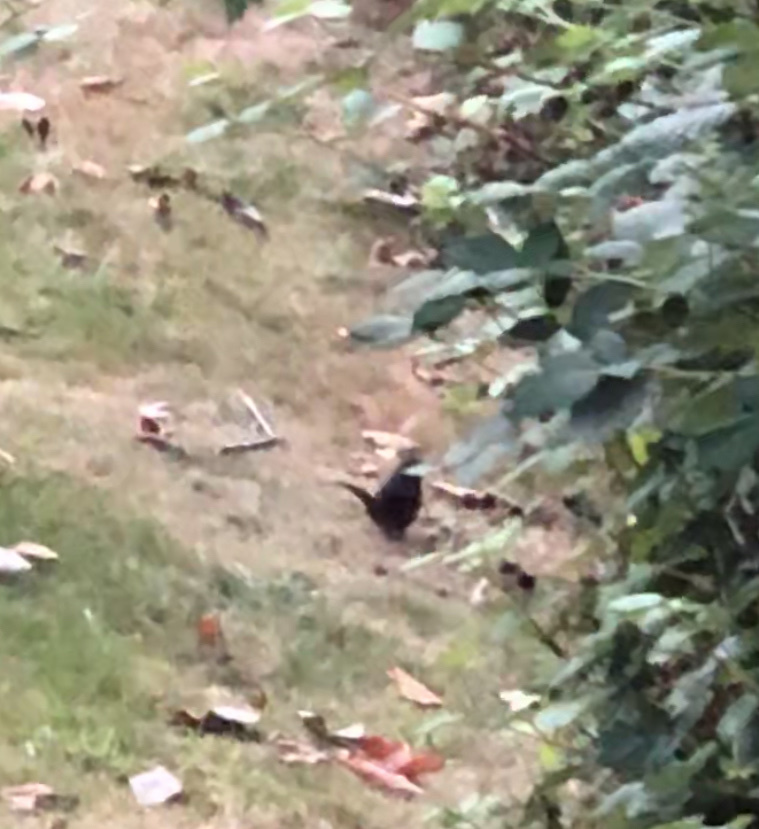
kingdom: Animalia
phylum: Chordata
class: Aves
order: Passeriformes
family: Passerellidae
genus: Pipilo
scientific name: Pipilo maculatus
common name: Spotted towhee
